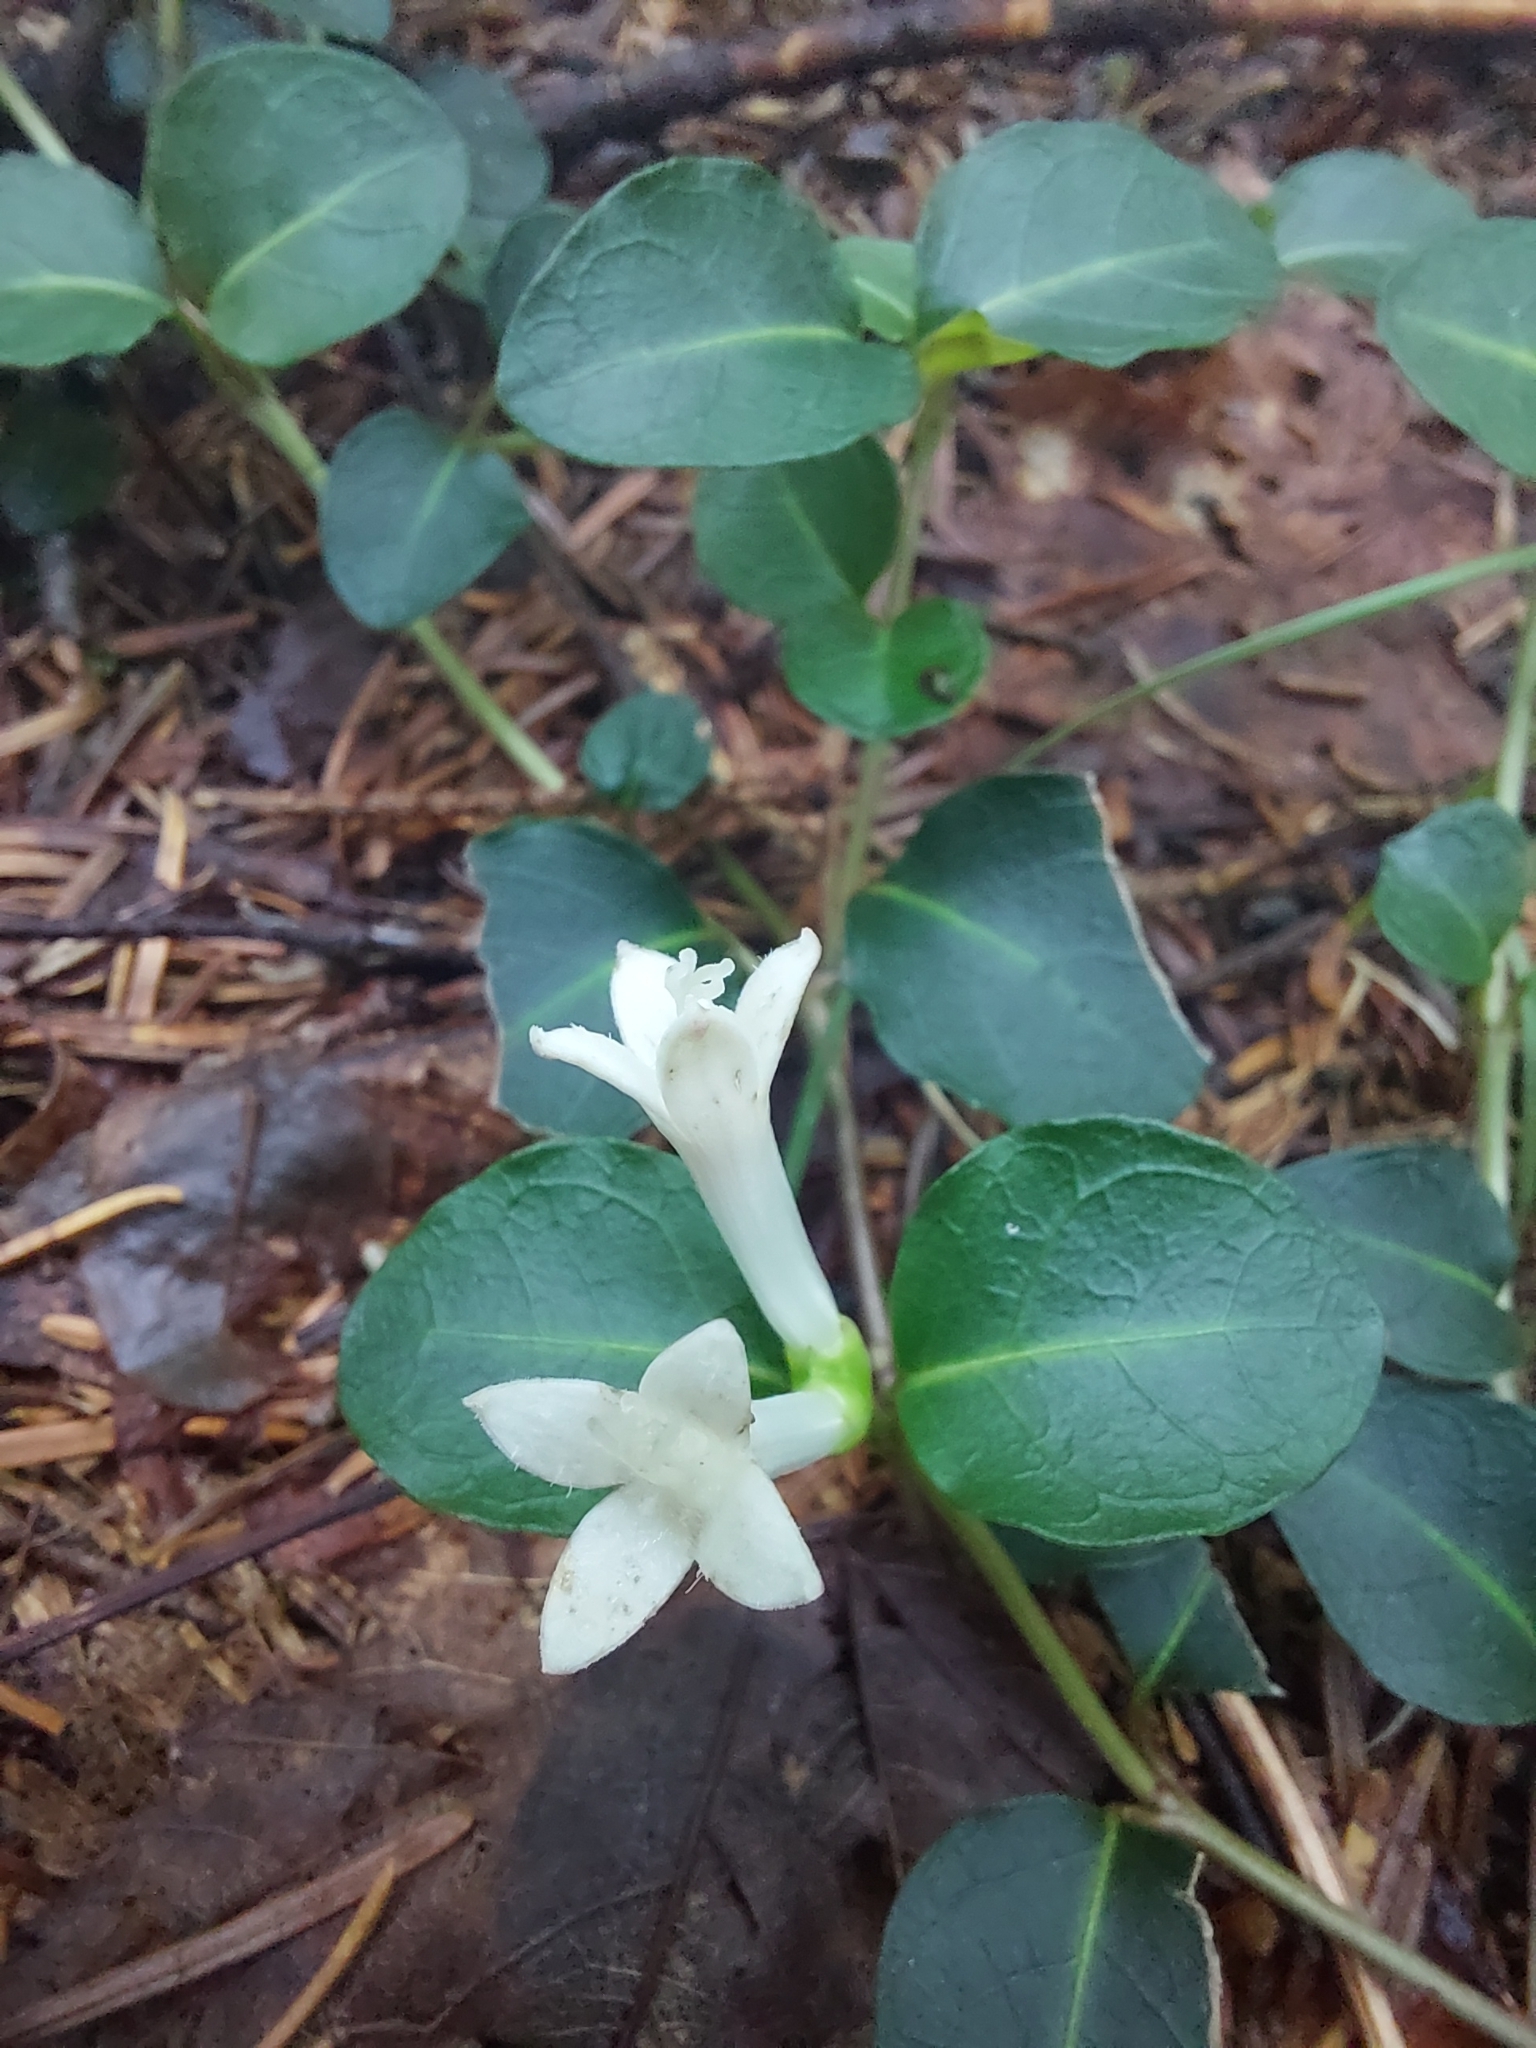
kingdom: Plantae
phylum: Tracheophyta
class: Magnoliopsida
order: Gentianales
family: Rubiaceae
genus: Mitchella
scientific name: Mitchella repens
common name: Partridge-berry
